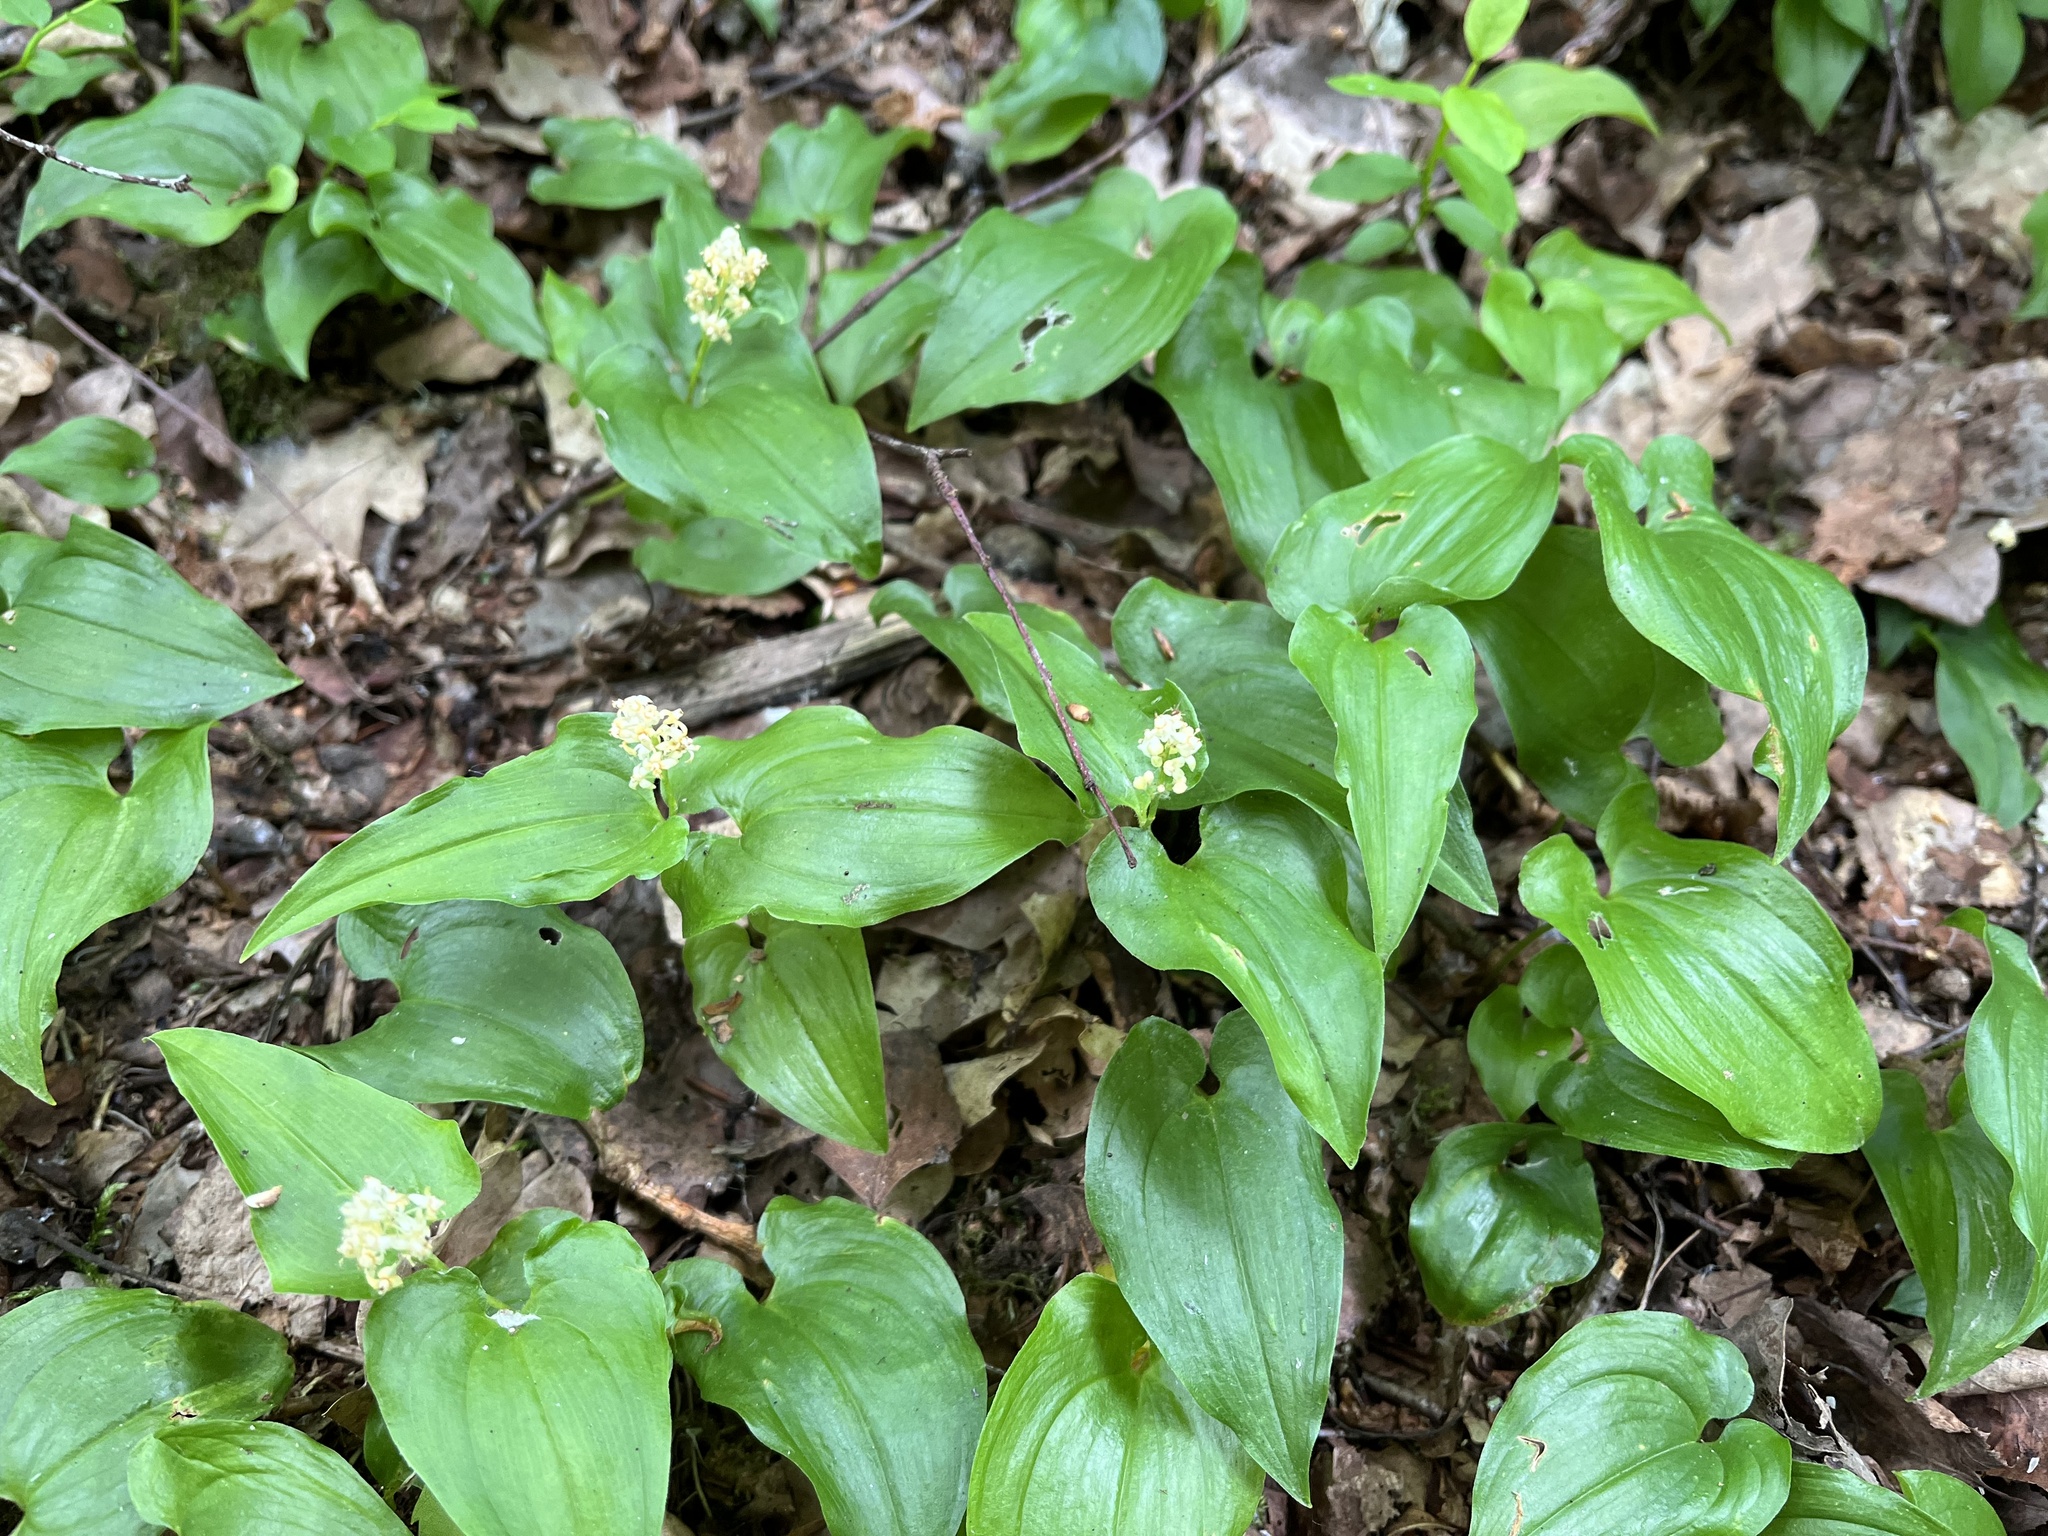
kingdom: Plantae
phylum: Tracheophyta
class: Liliopsida
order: Asparagales
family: Asparagaceae
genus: Maianthemum
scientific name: Maianthemum bifolium
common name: May lily
